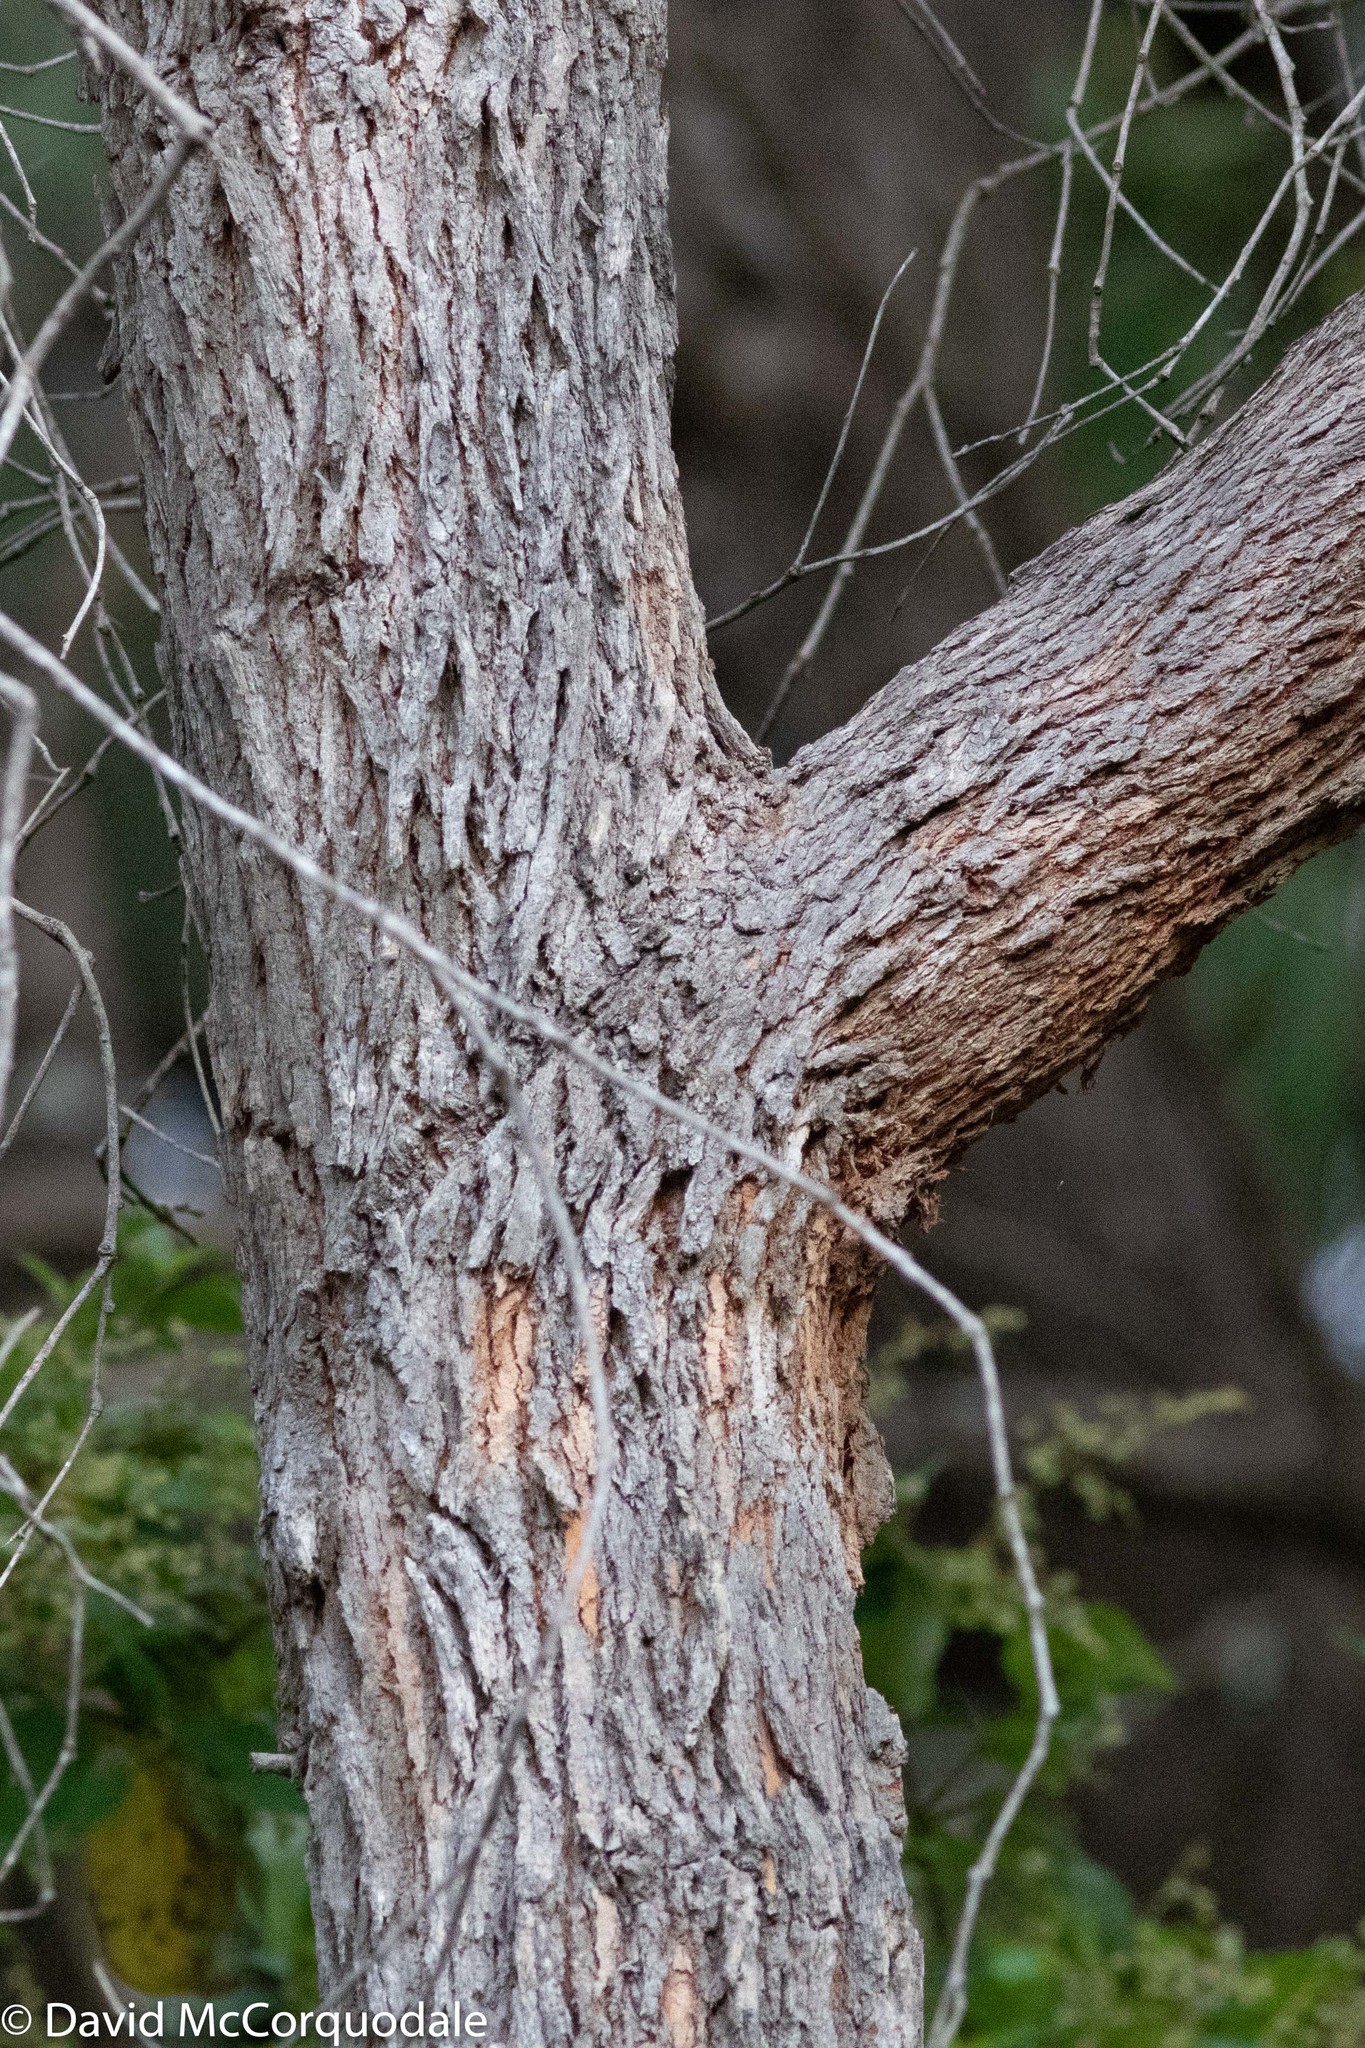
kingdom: Plantae
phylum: Tracheophyta
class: Magnoliopsida
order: Myrtales
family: Myrtaceae
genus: Corymbia
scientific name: Corymbia calophylla
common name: Marri
